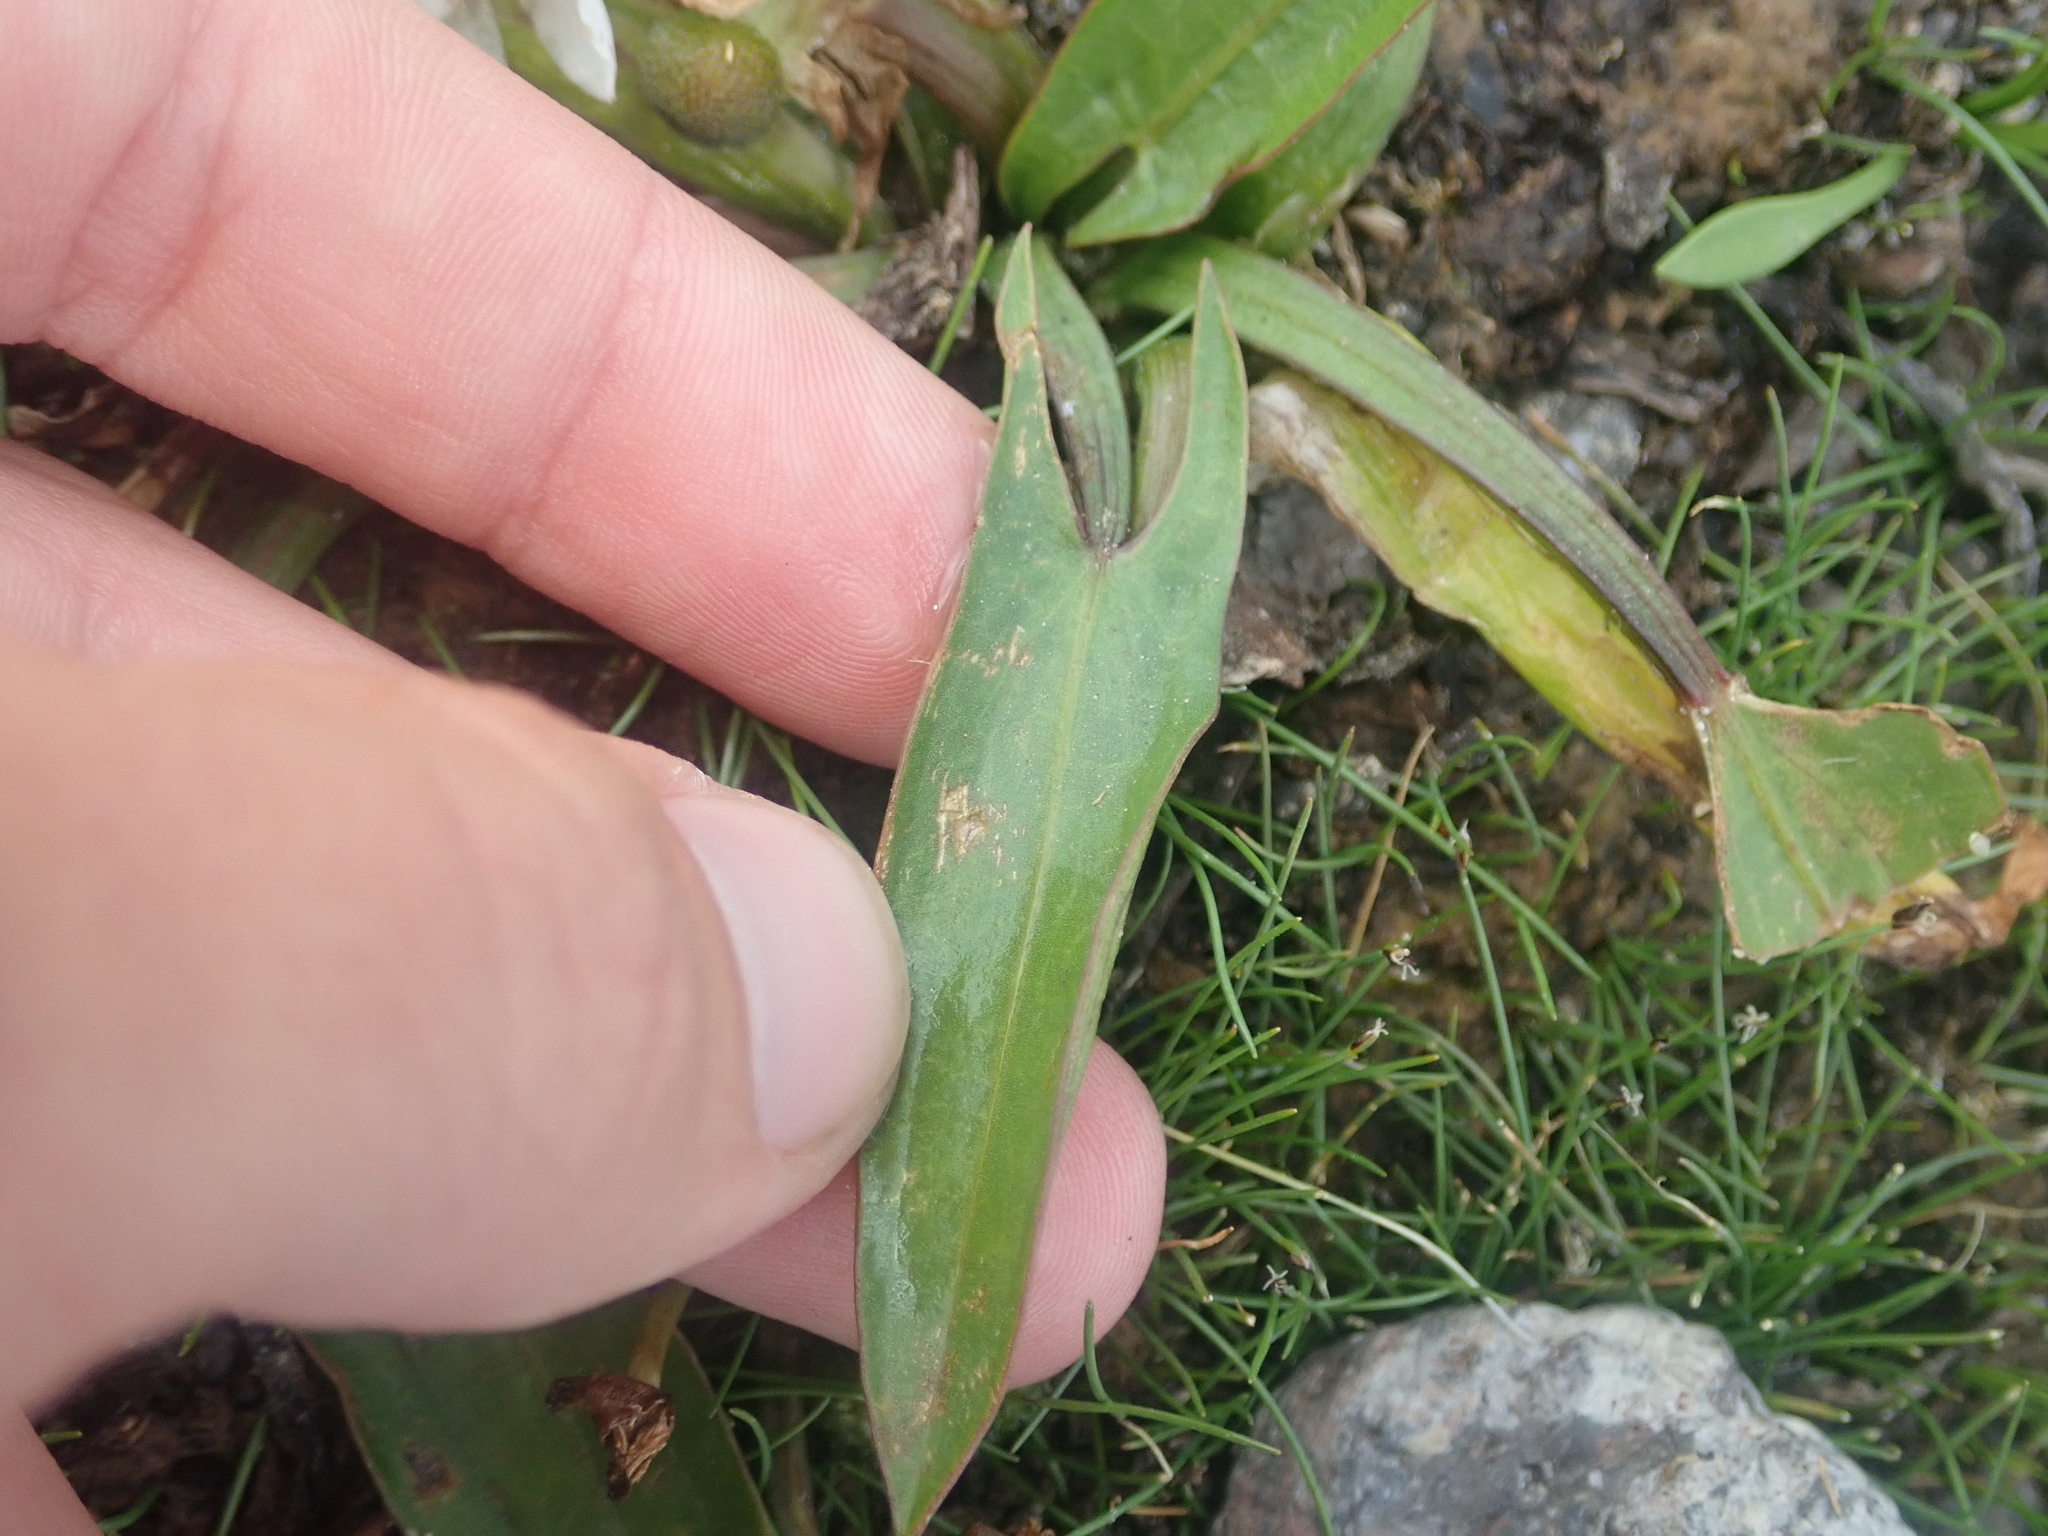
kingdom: Plantae
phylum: Tracheophyta
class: Liliopsida
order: Alismatales
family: Alismataceae
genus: Sagittaria
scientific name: Sagittaria cuneata
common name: Northern arrowhead
